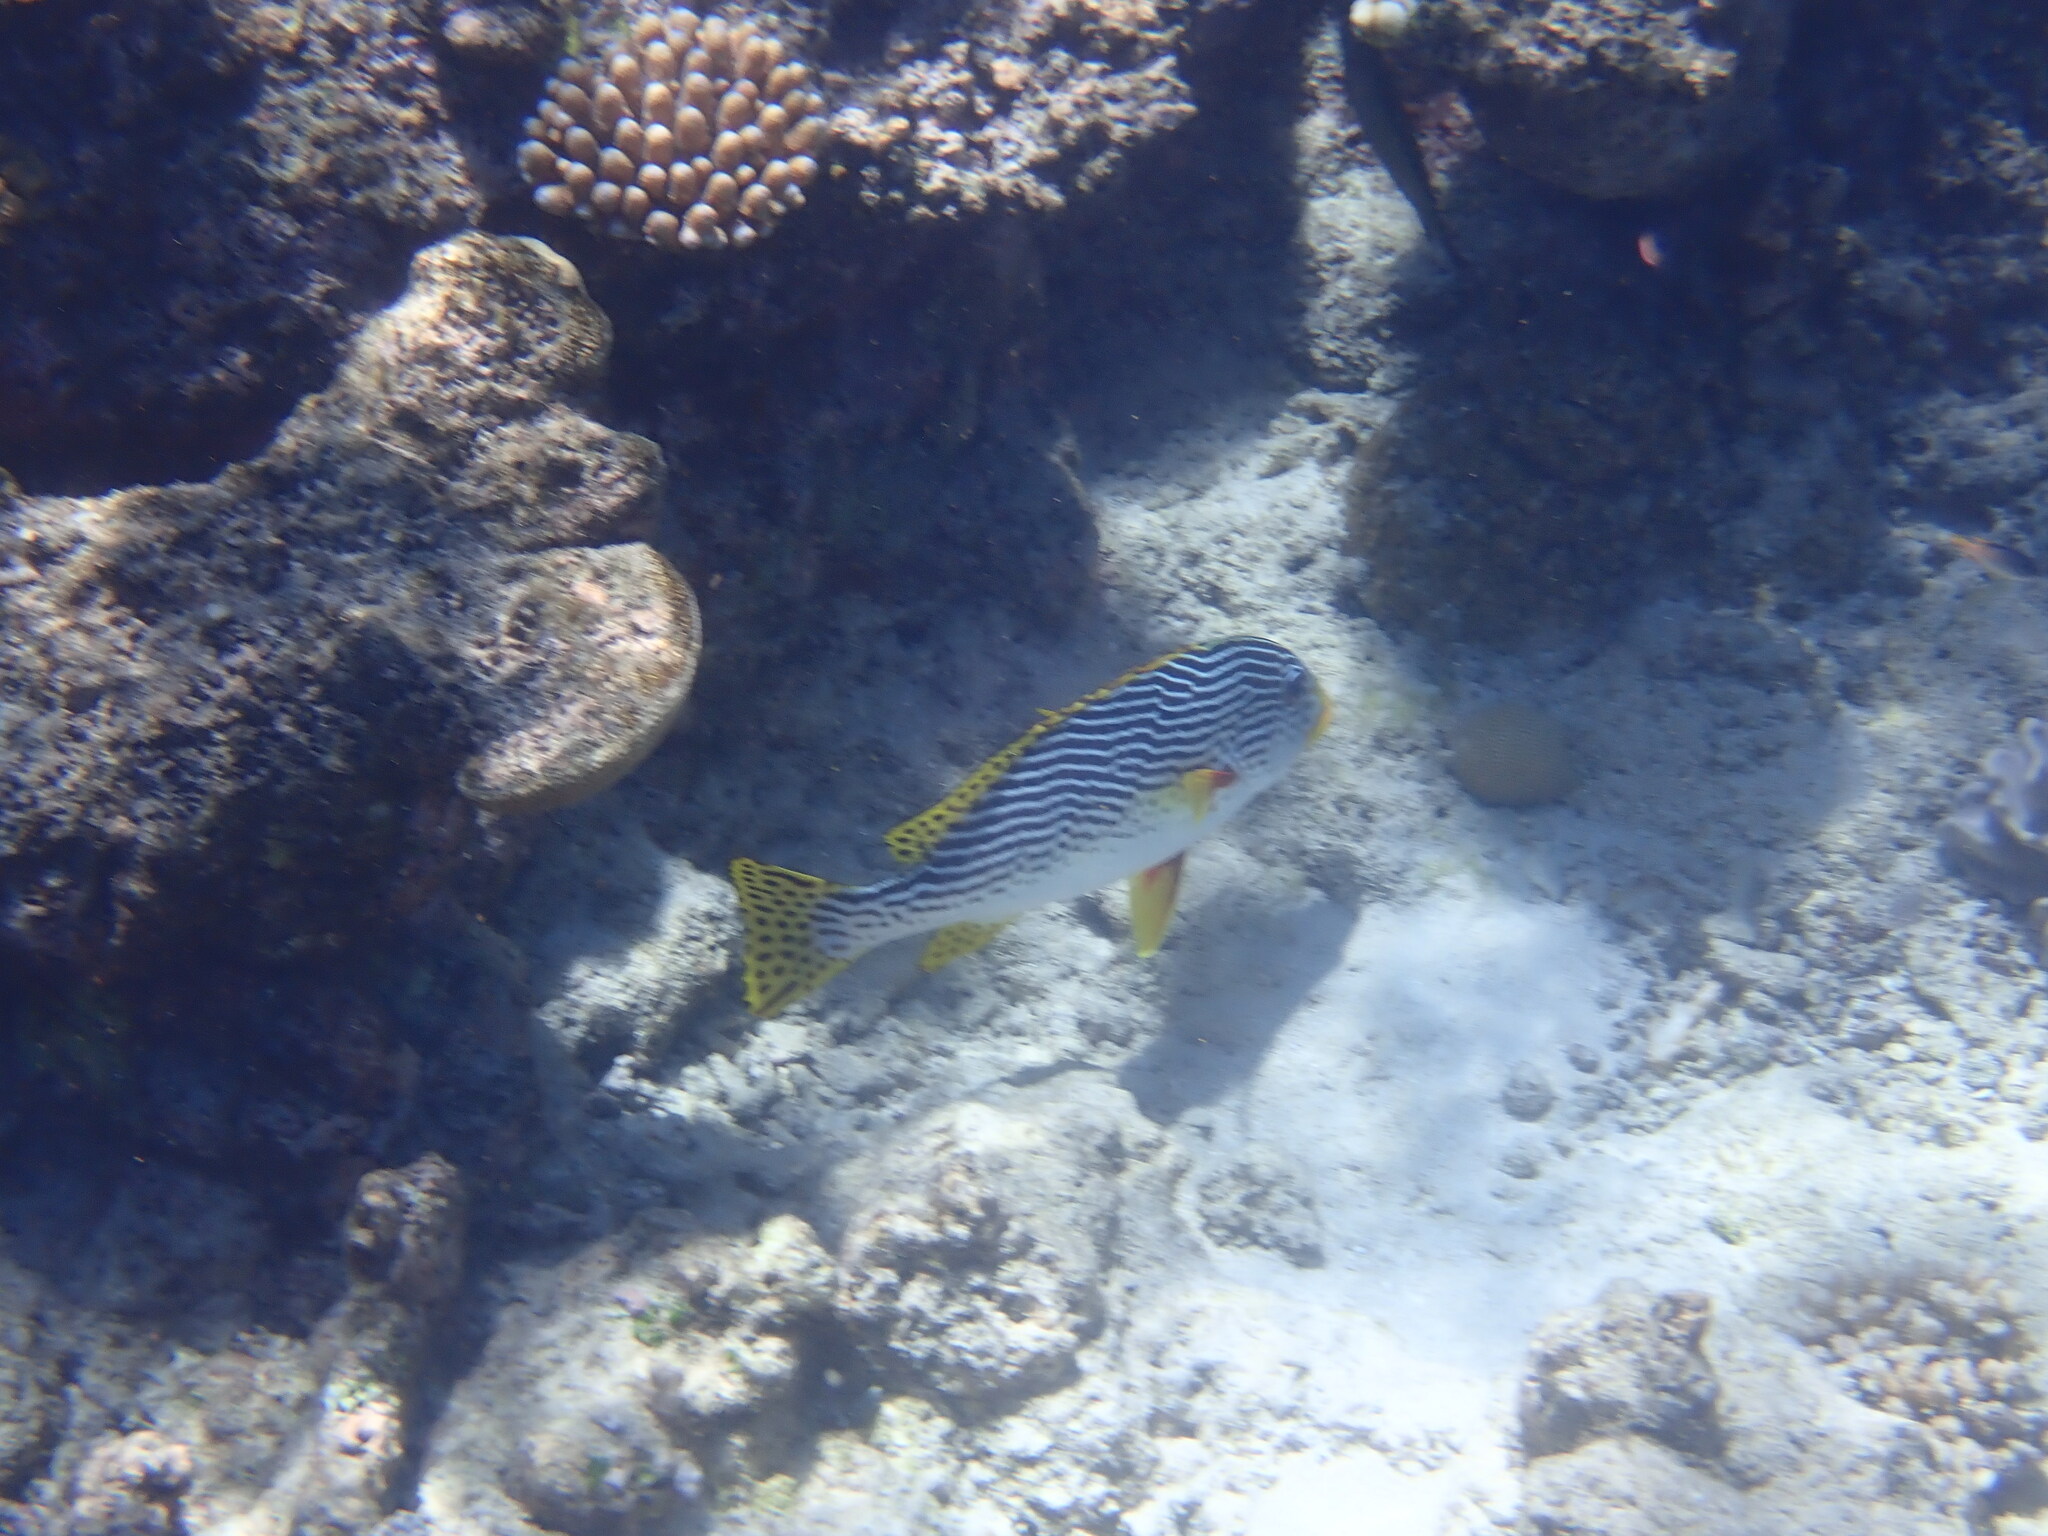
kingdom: Animalia
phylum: Chordata
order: Perciformes
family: Haemulidae
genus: Plectorhinchus
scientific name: Plectorhinchus lineatus
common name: Goldman's sweetlips
